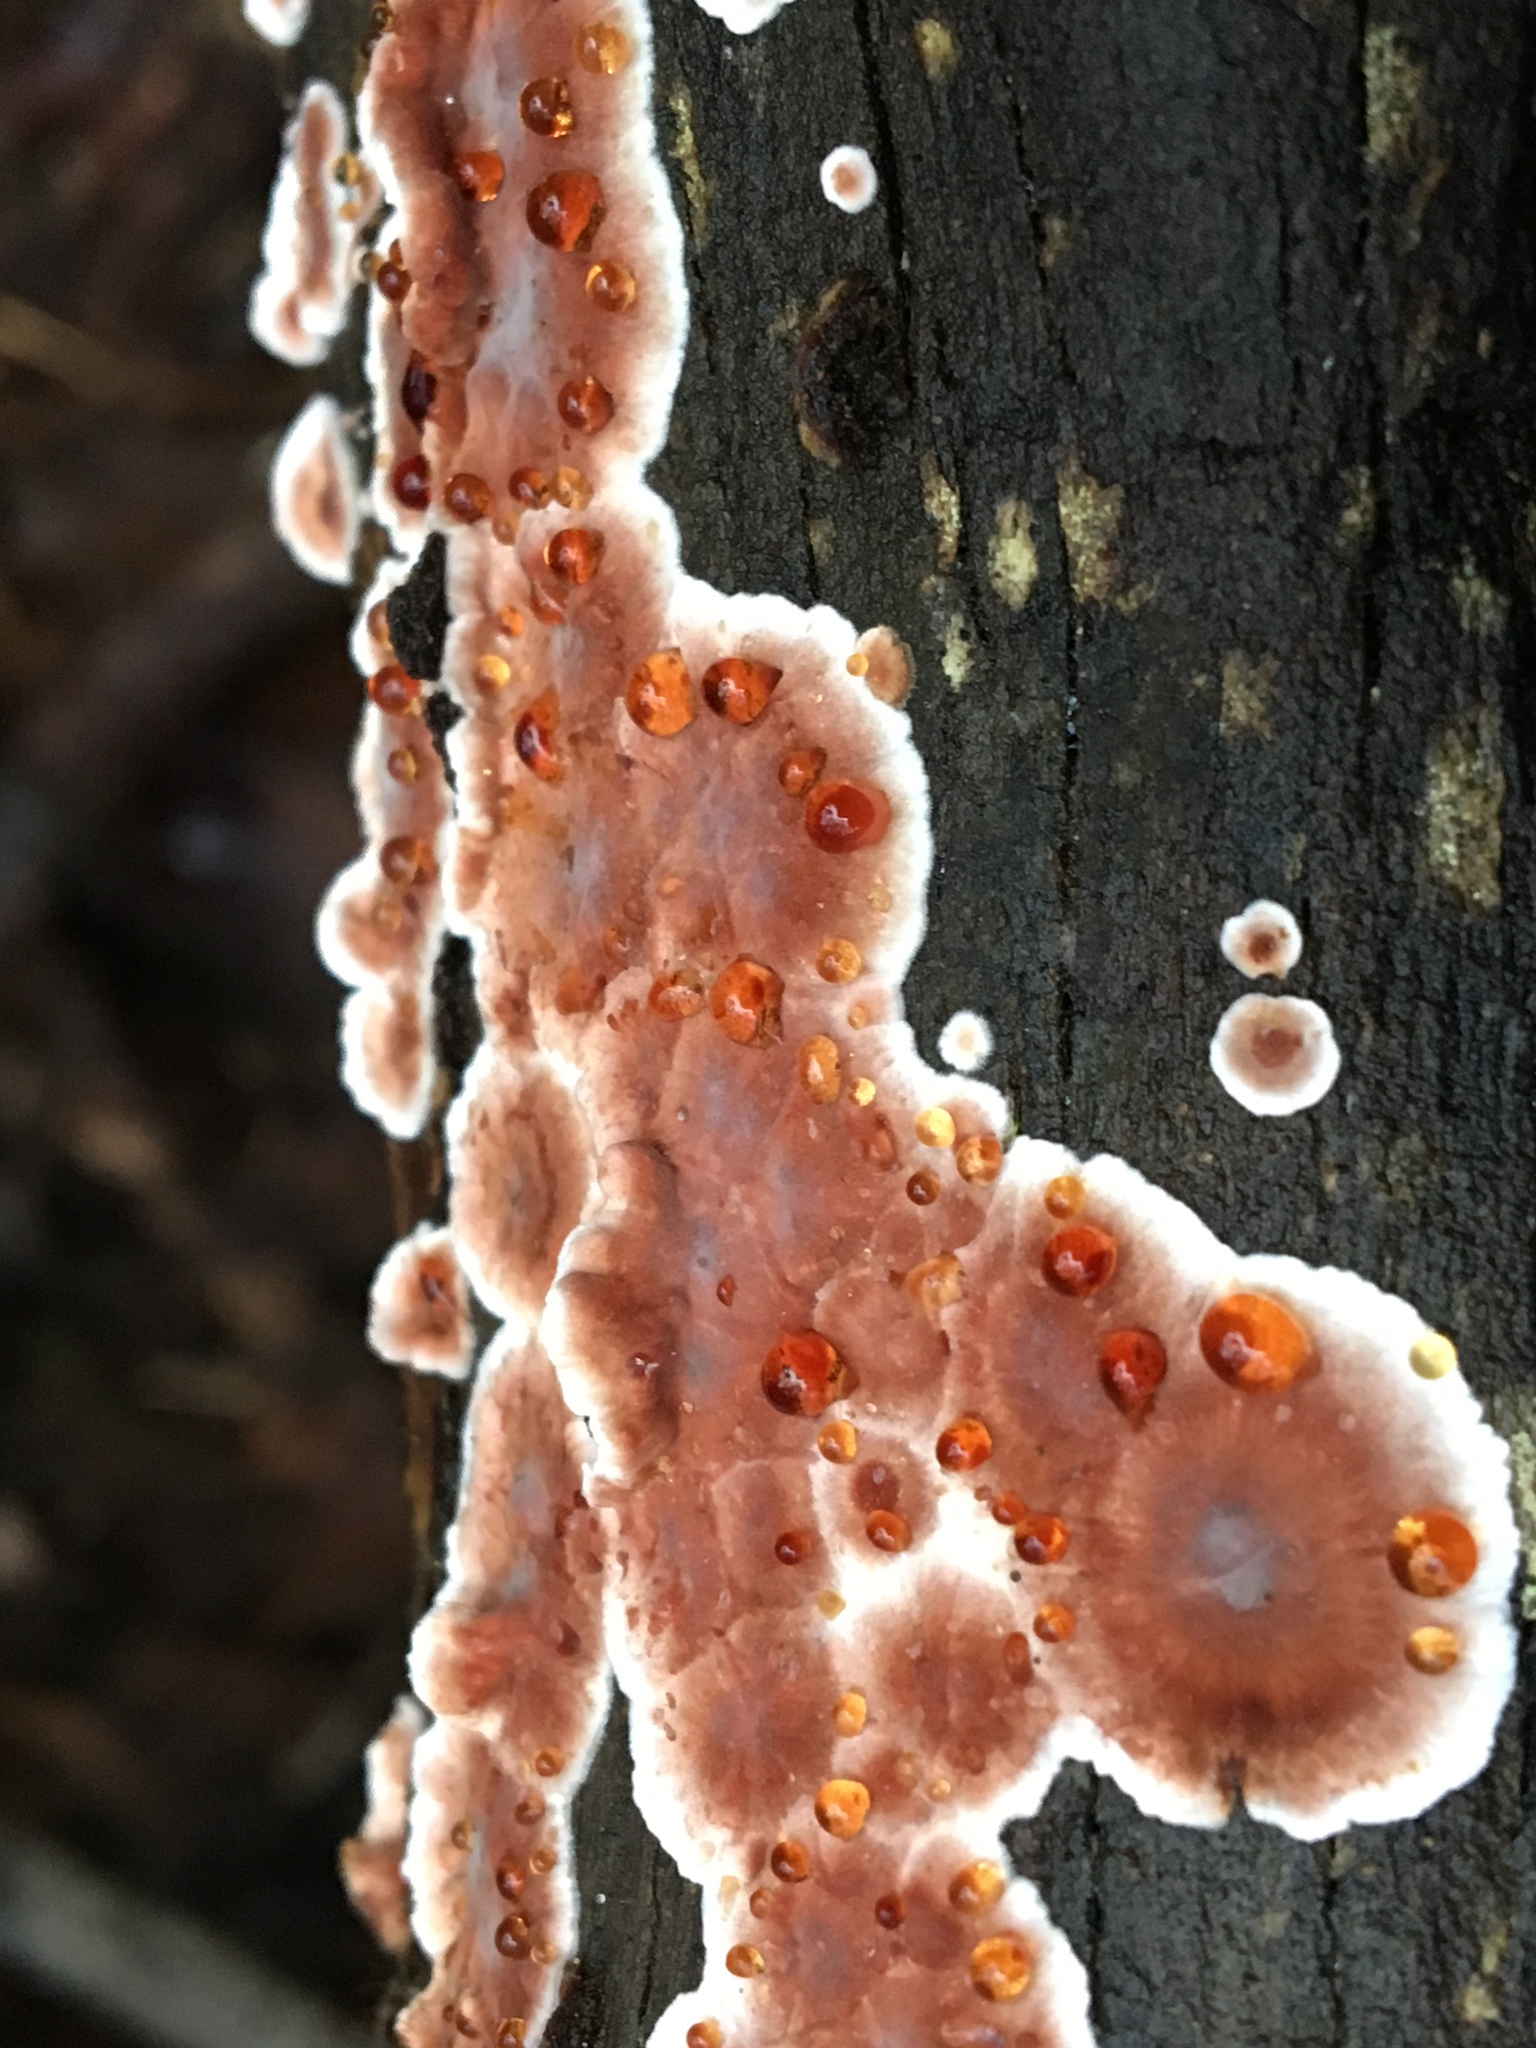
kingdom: Fungi
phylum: Basidiomycota
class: Agaricomycetes
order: Russulales
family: Stereaceae
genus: Xylobolus
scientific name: Xylobolus illudens
